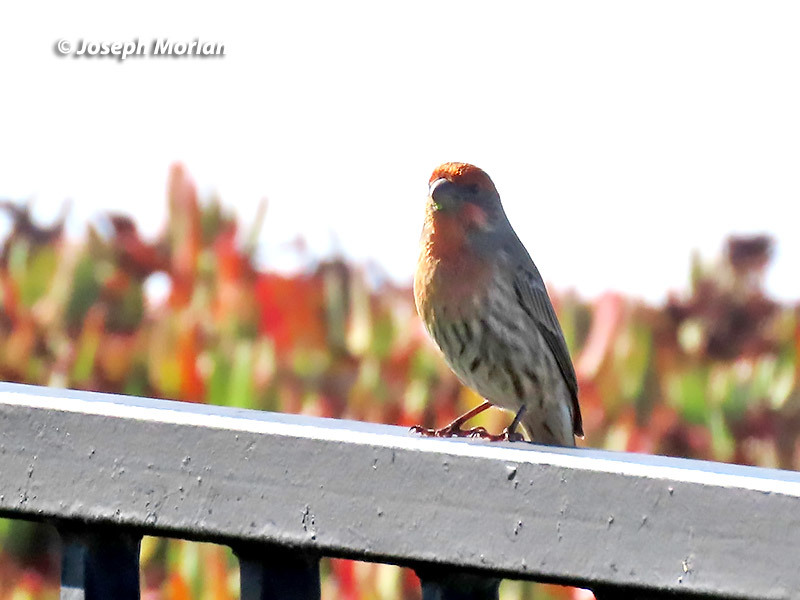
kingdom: Animalia
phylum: Chordata
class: Aves
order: Passeriformes
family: Fringillidae
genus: Haemorhous
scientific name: Haemorhous mexicanus
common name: House finch
